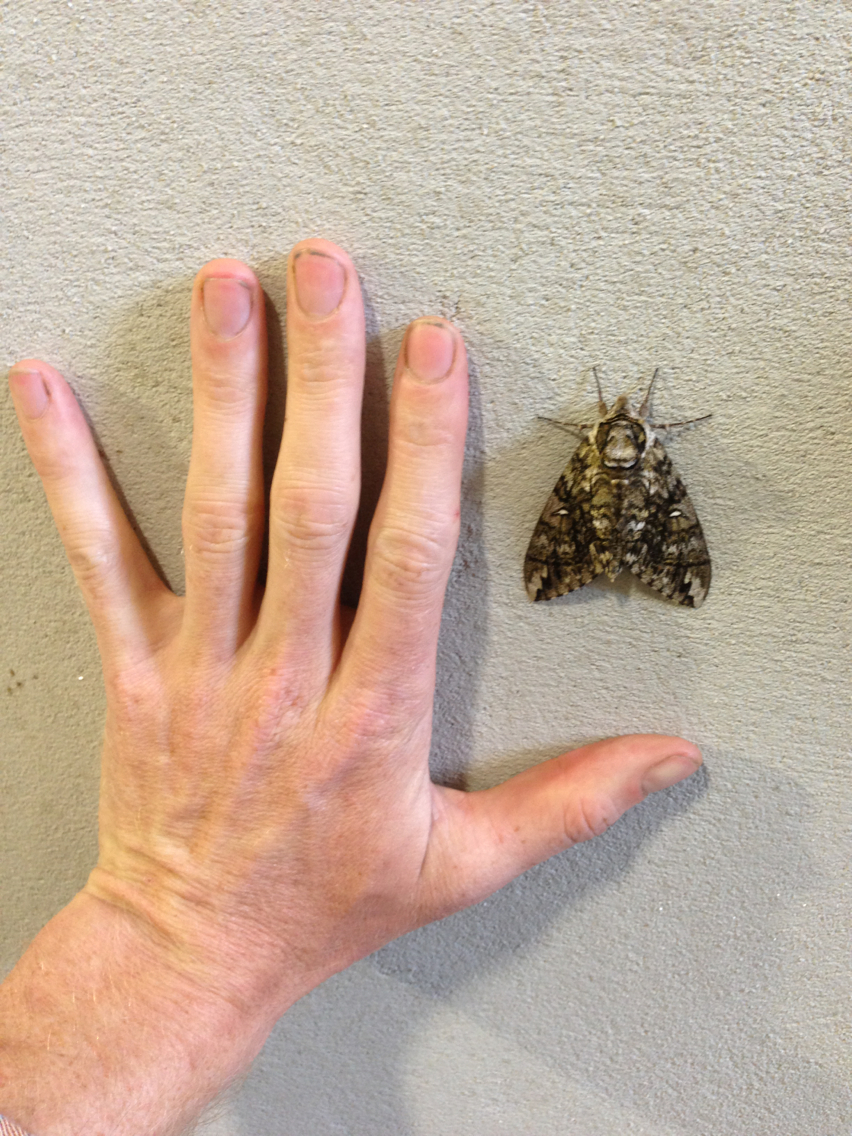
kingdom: Animalia
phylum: Arthropoda
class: Insecta
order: Lepidoptera
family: Sphingidae
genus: Ceratomia
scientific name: Ceratomia undulosa
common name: Waved sphinx
